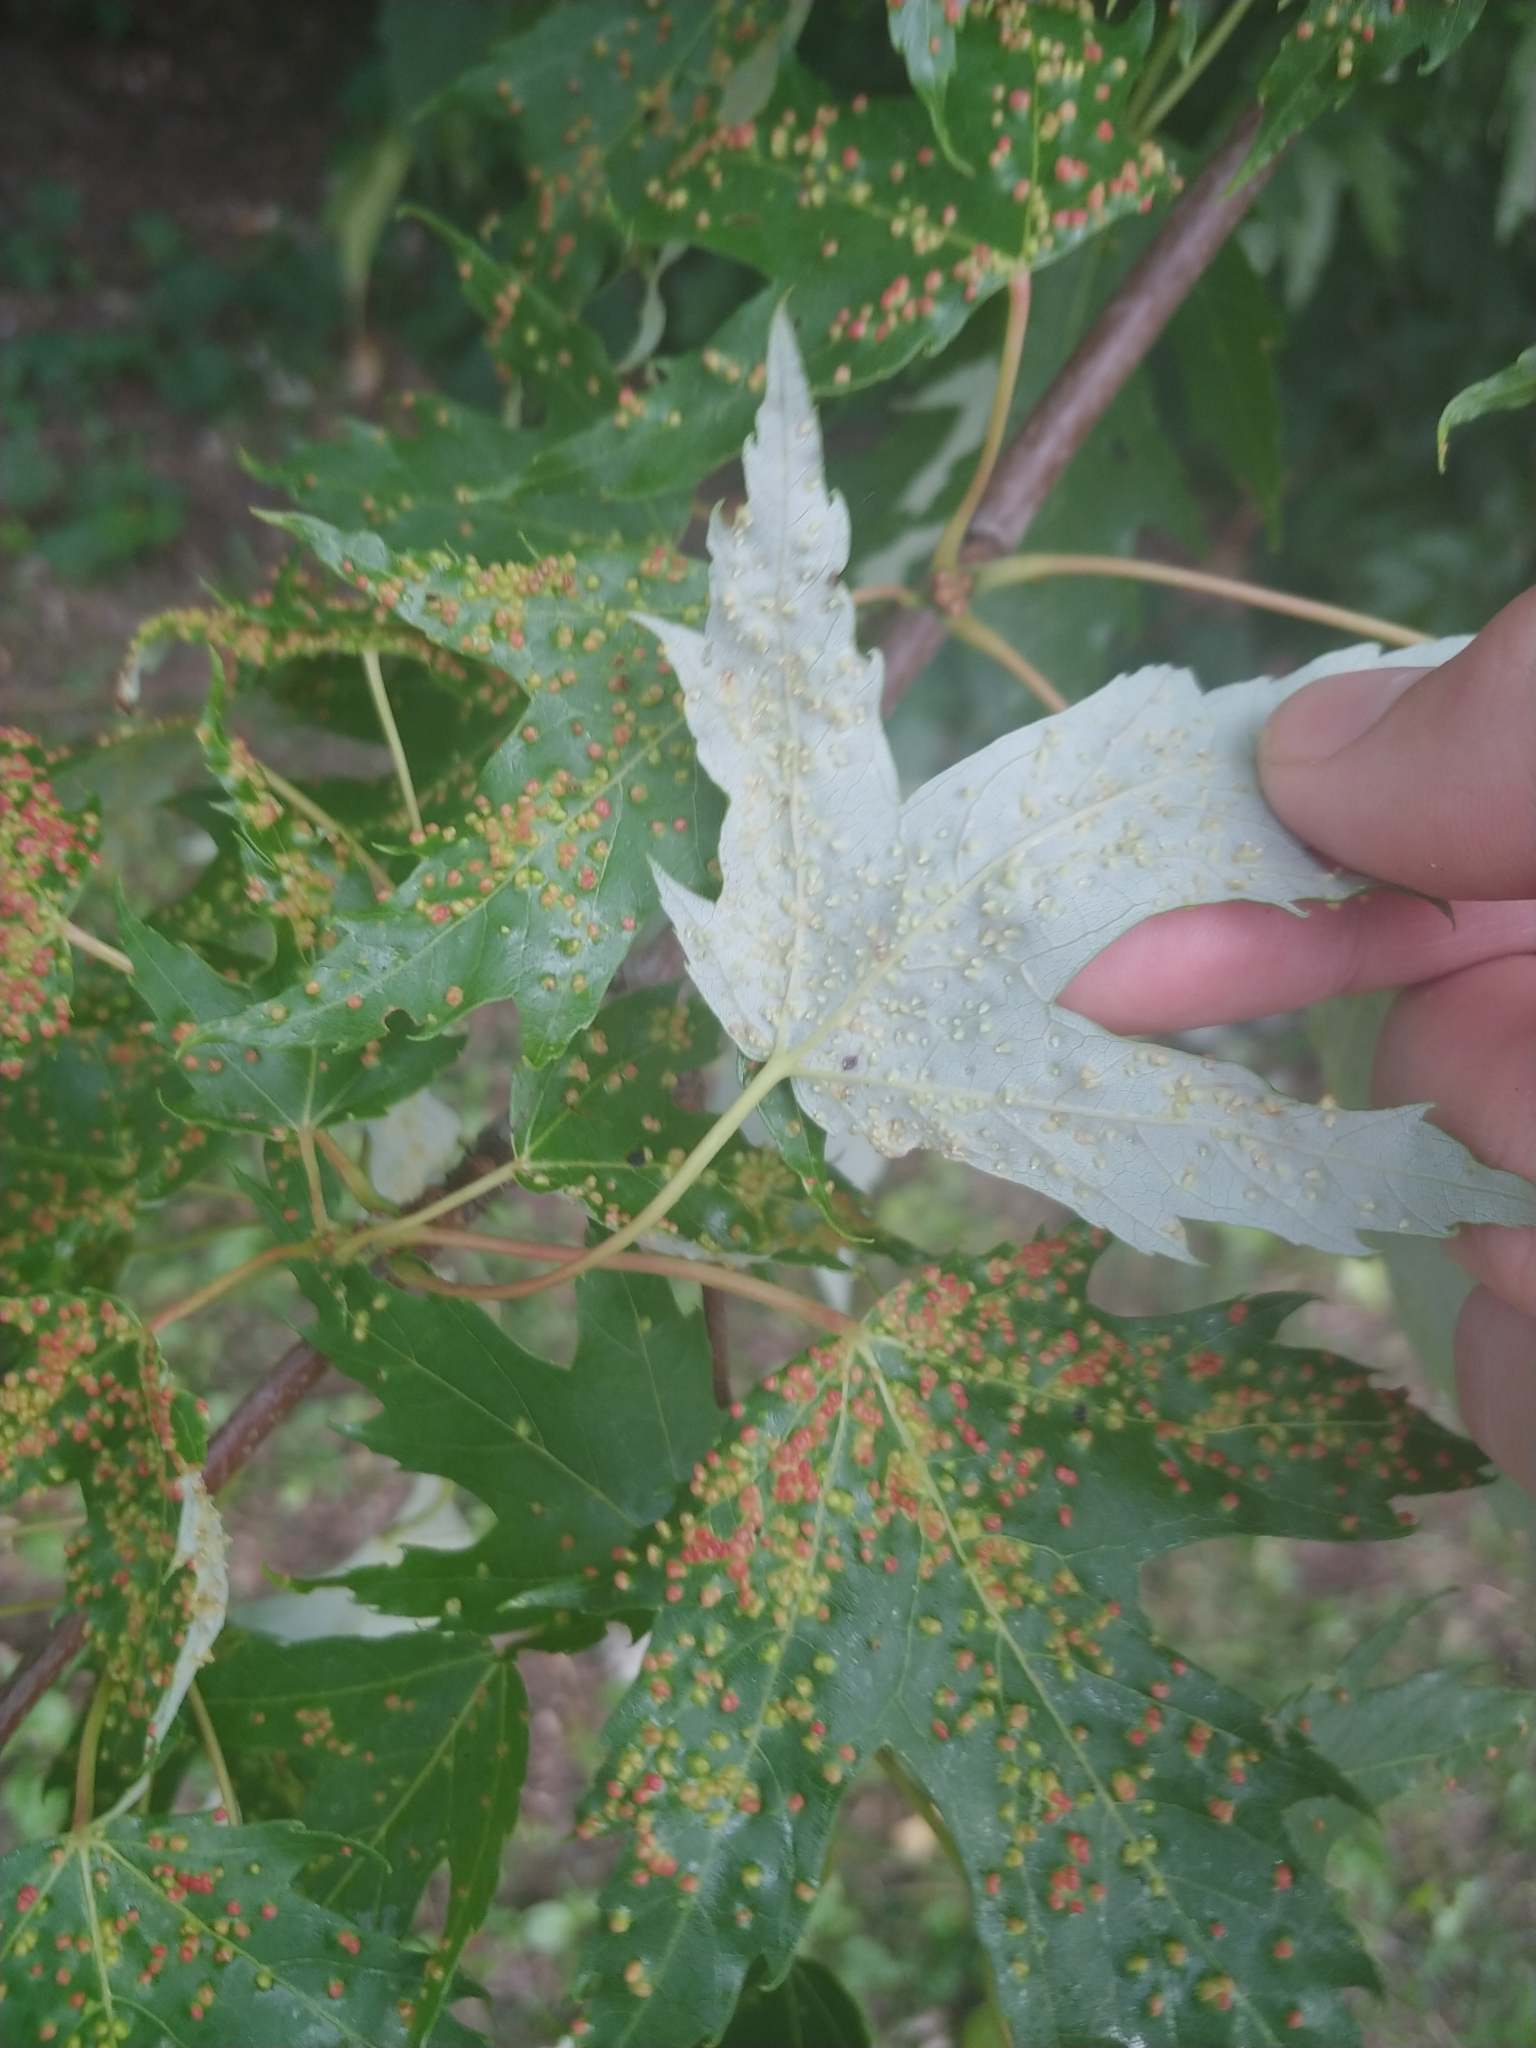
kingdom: Animalia
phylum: Arthropoda
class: Arachnida
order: Trombidiformes
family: Eriophyidae
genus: Vasates
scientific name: Vasates quadripedes
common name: Maple bladder gall mite
